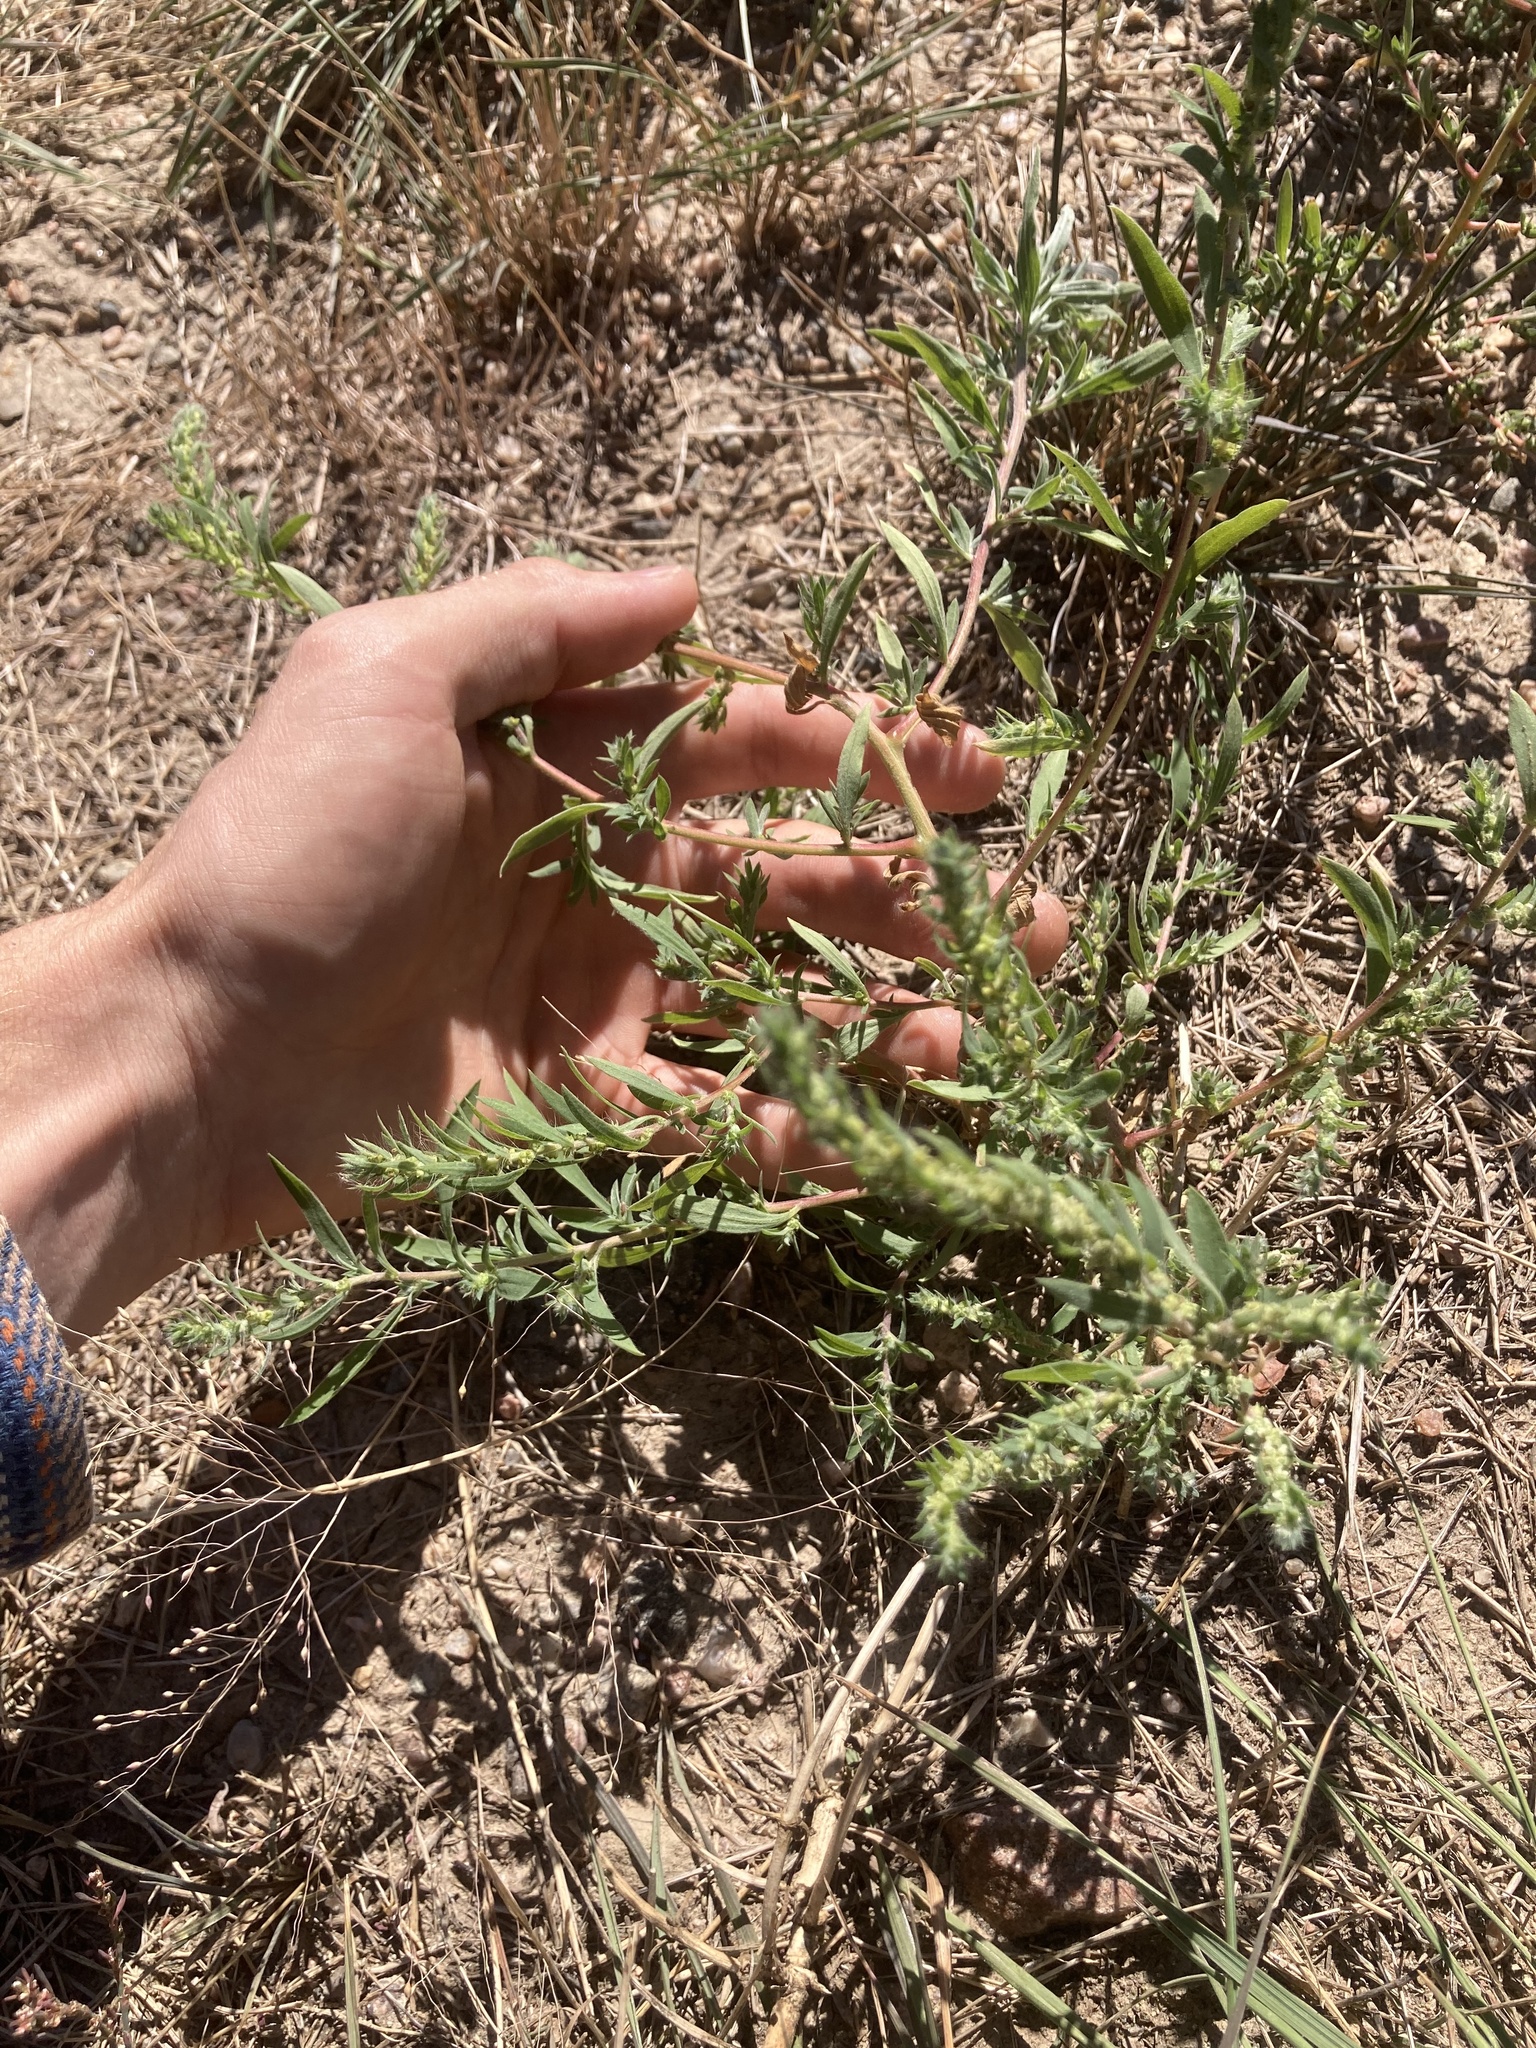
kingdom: Plantae
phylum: Tracheophyta
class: Magnoliopsida
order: Caryophyllales
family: Amaranthaceae
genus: Bassia
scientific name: Bassia scoparia
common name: Belvedere
